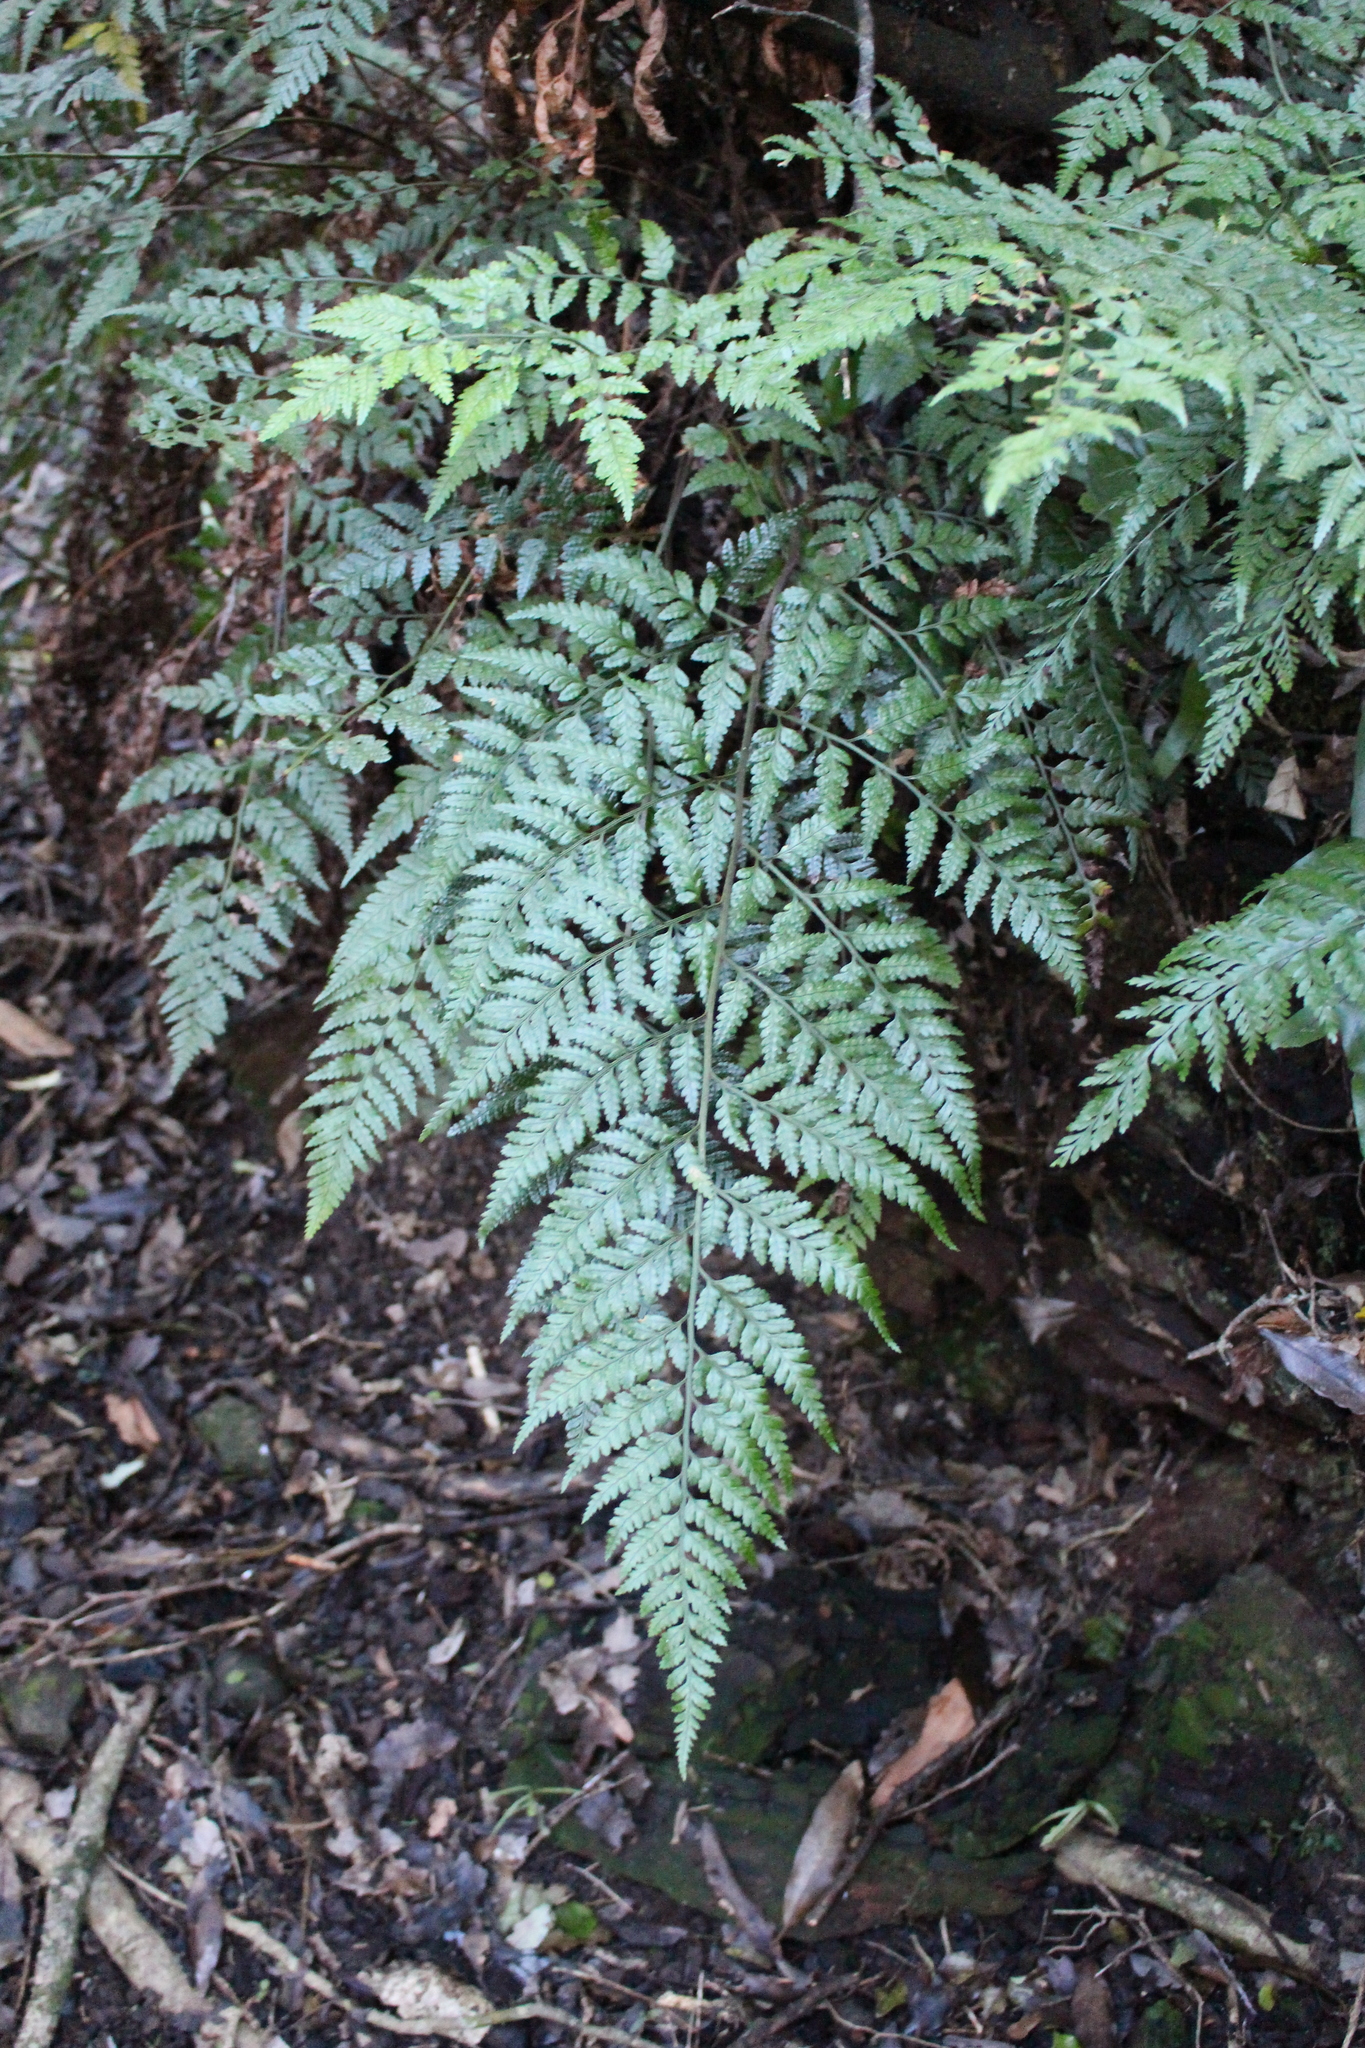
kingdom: Plantae
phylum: Tracheophyta
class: Polypodiopsida
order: Polypodiales
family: Dryopteridaceae
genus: Rumohra
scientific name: Rumohra adiantiformis
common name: Leather fern
